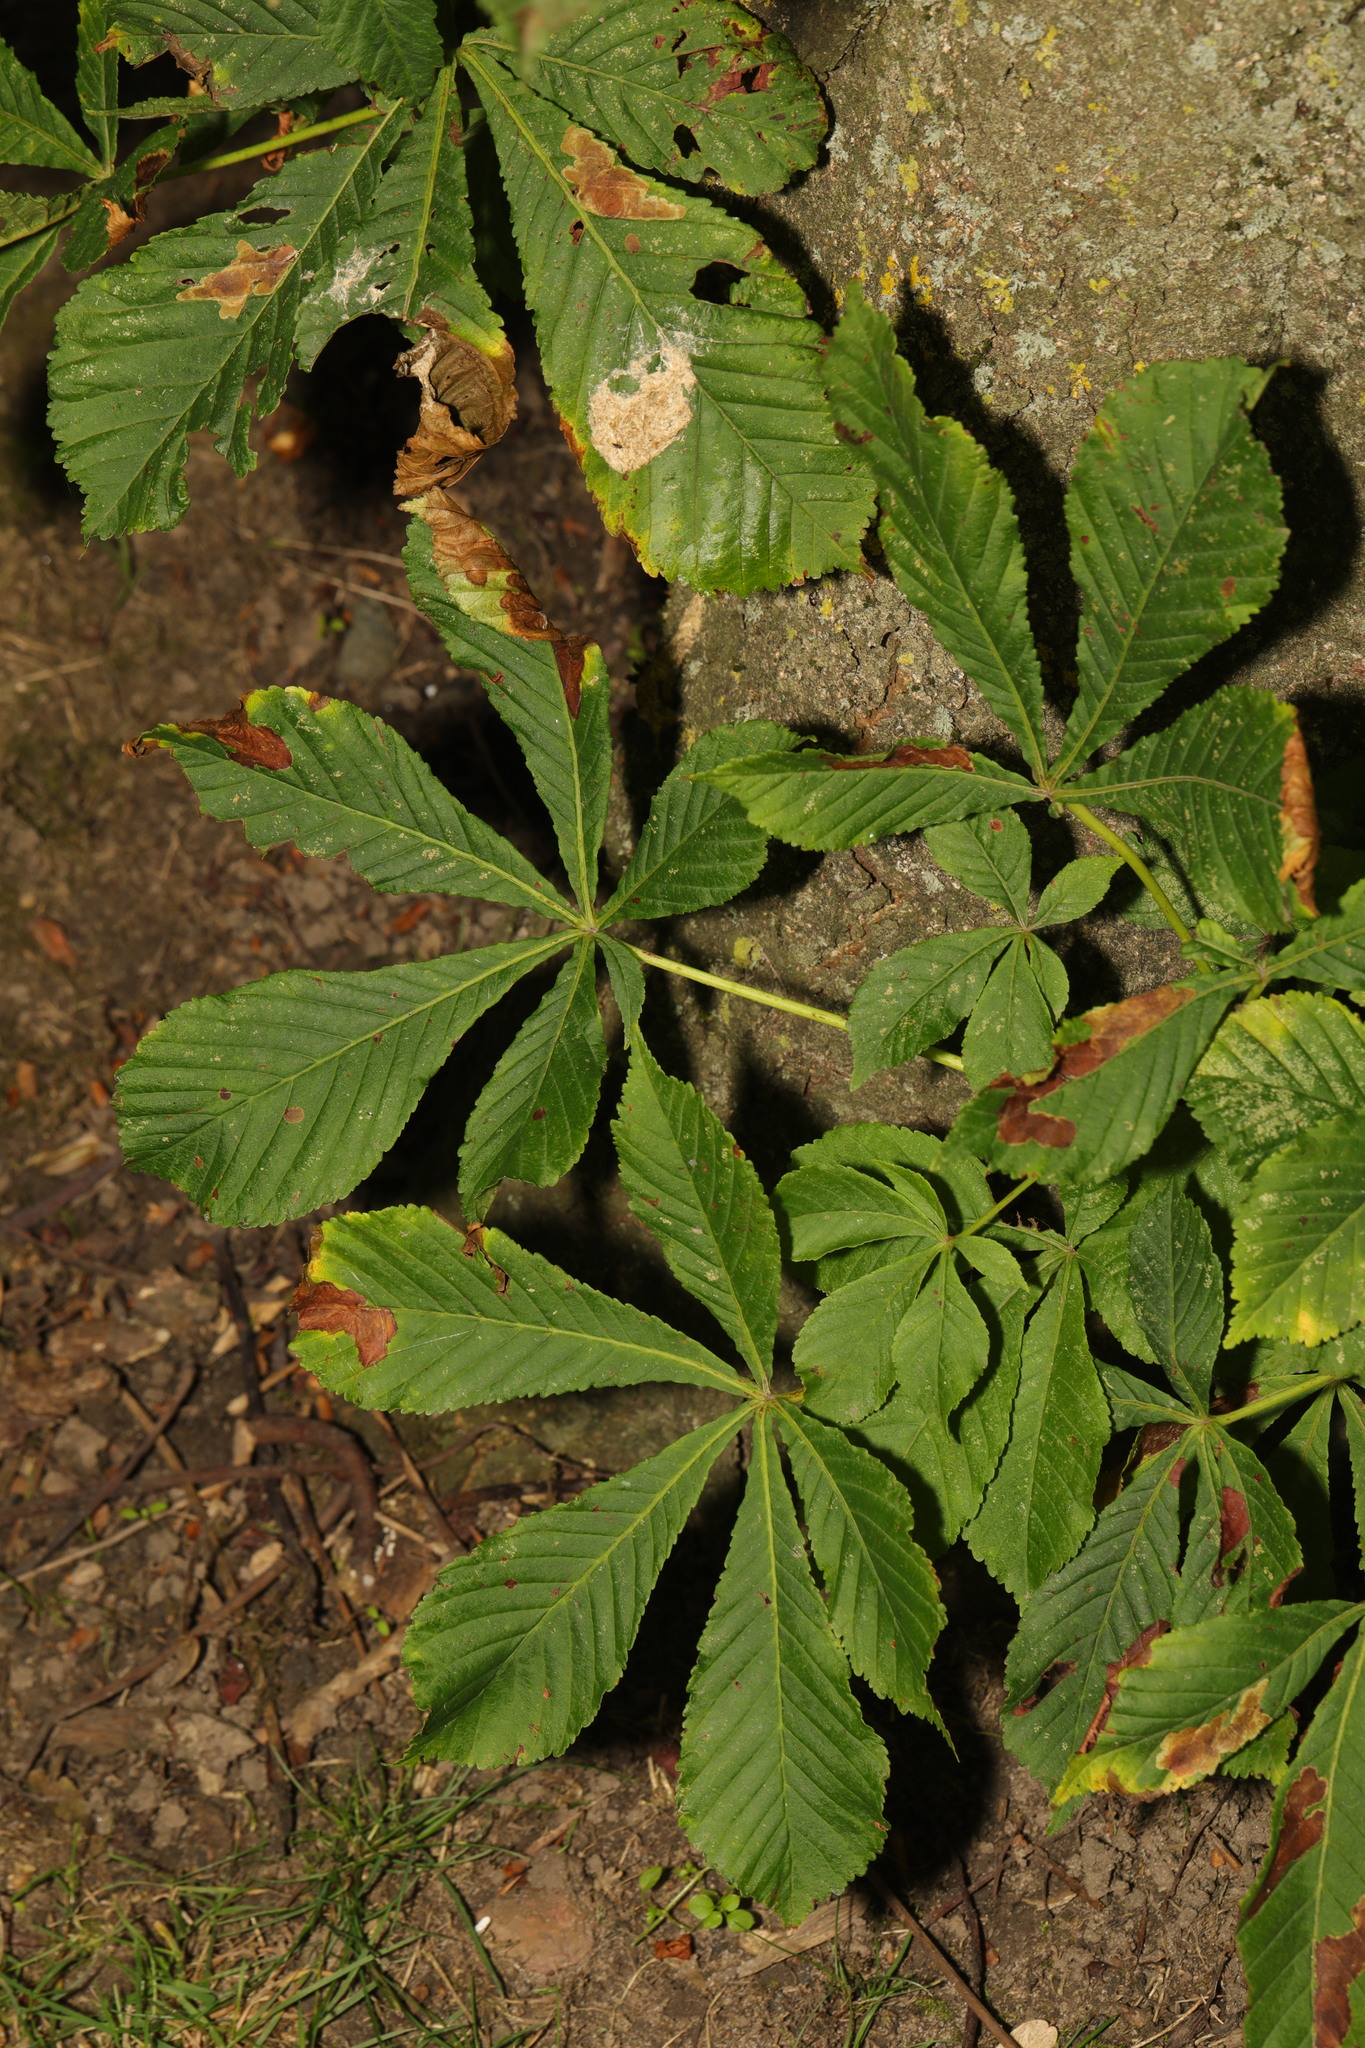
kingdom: Plantae
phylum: Tracheophyta
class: Magnoliopsida
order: Sapindales
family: Sapindaceae
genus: Aesculus
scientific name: Aesculus hippocastanum
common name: Horse-chestnut
